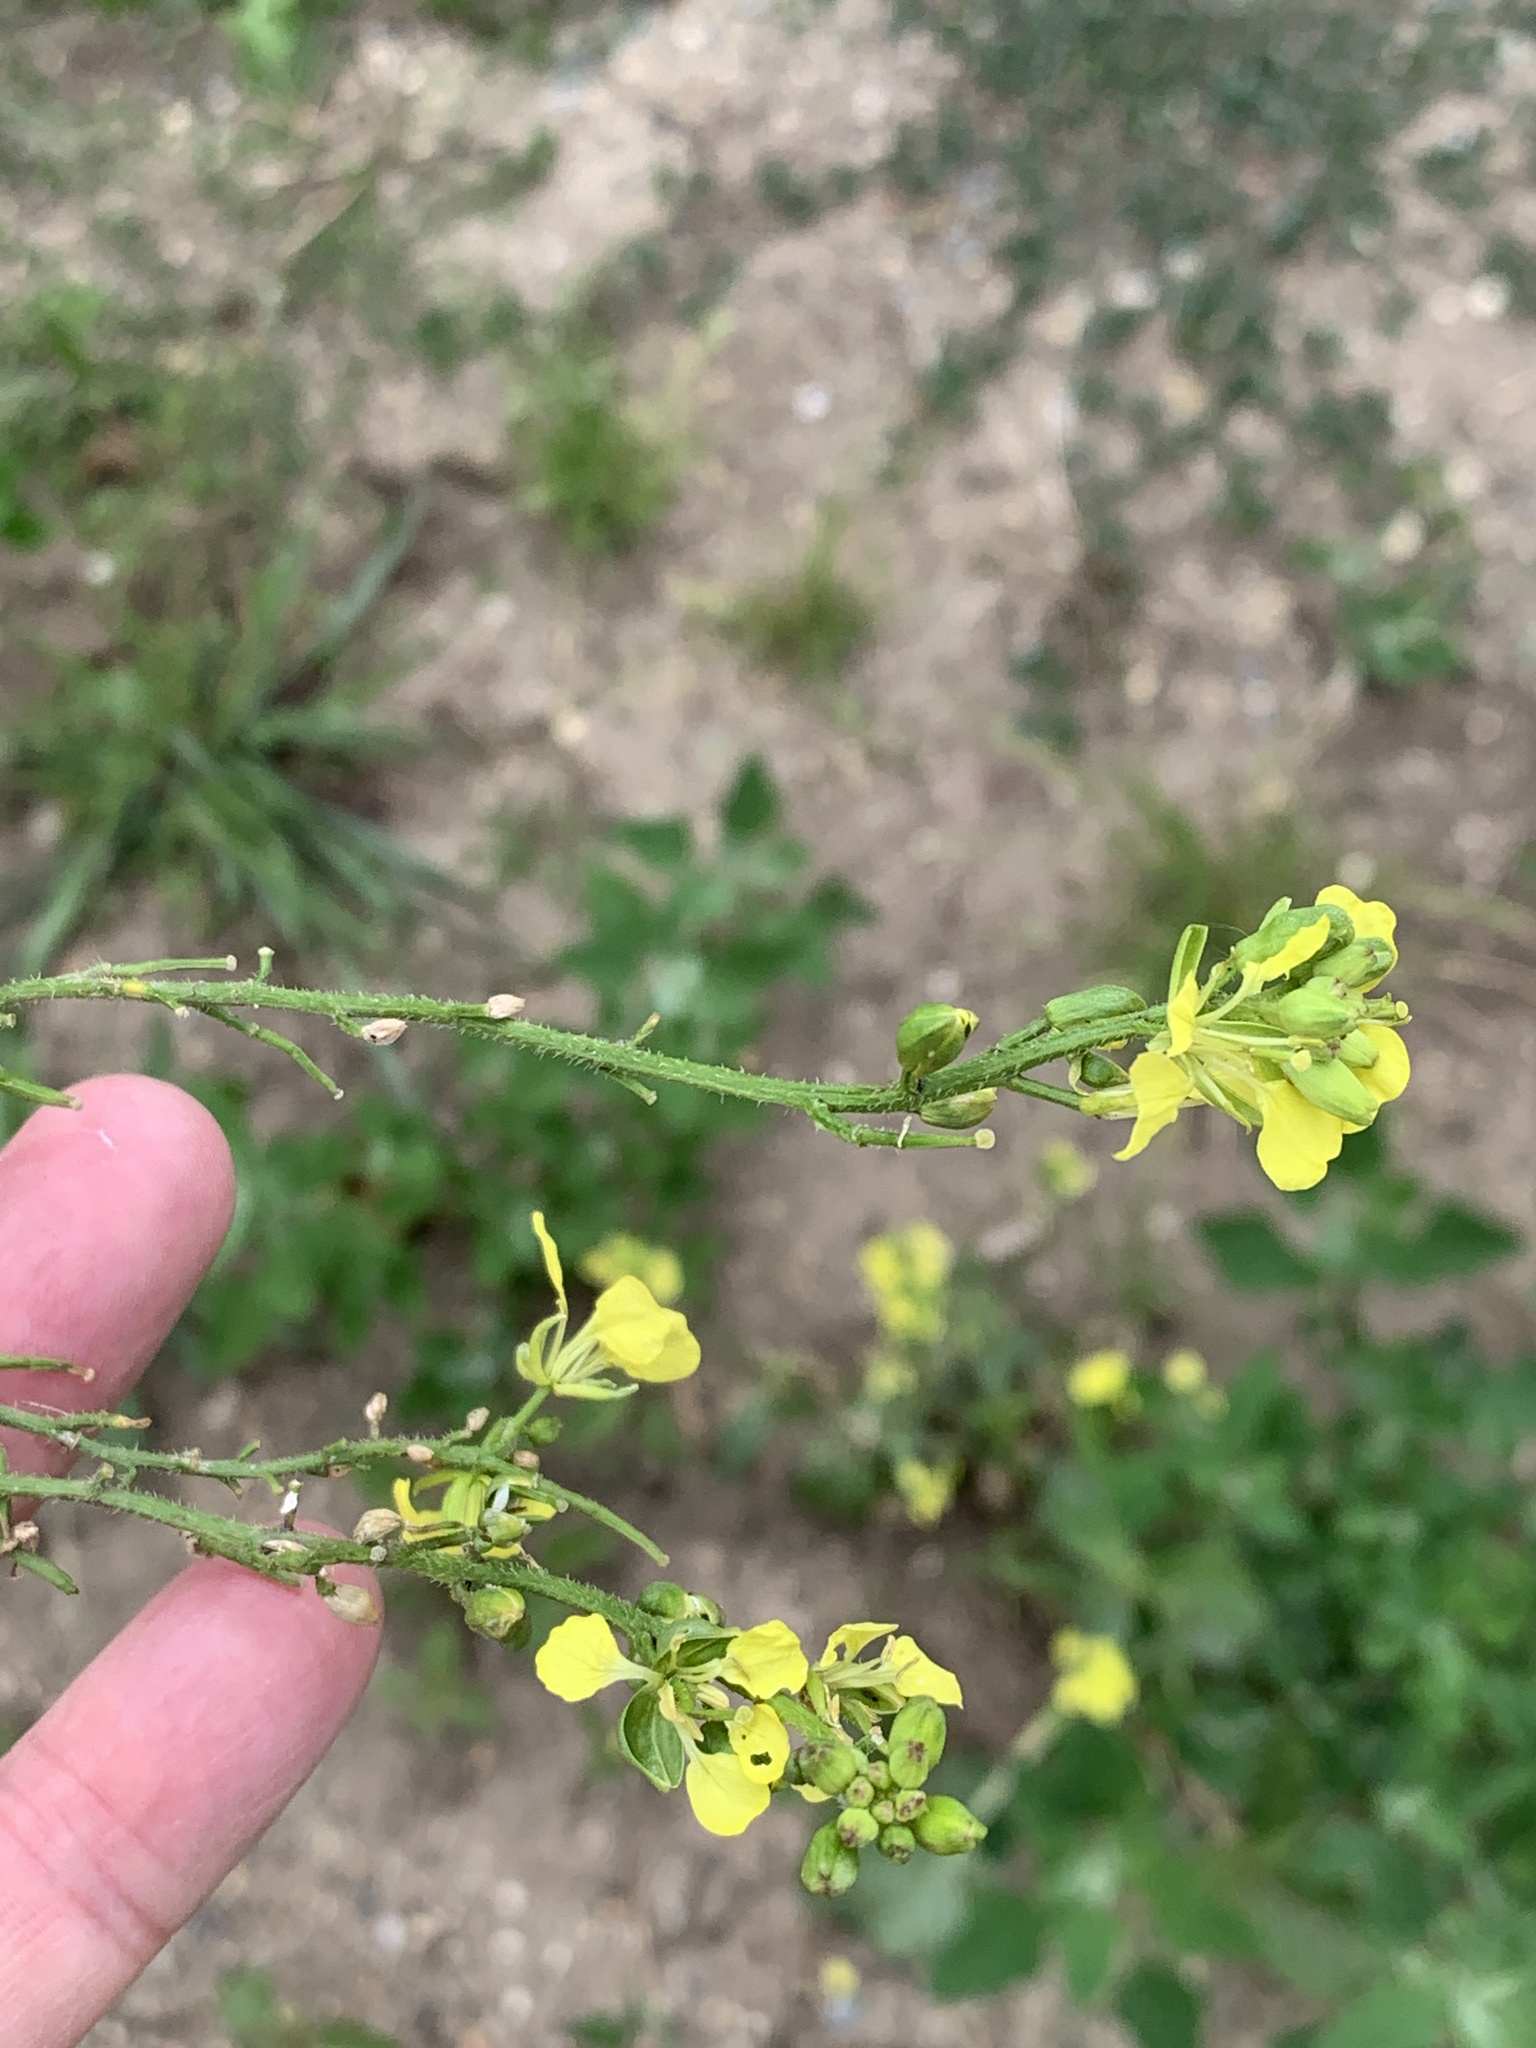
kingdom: Plantae
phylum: Tracheophyta
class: Magnoliopsida
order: Brassicales
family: Brassicaceae
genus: Sinapis
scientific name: Sinapis arvensis
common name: Charlock
